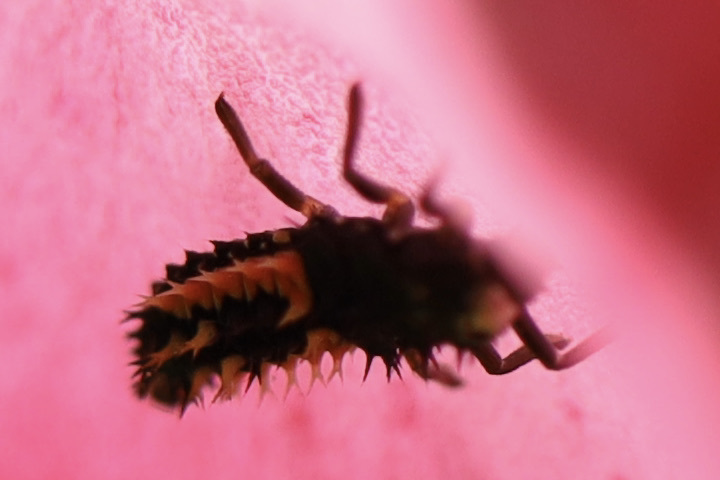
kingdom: Animalia
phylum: Arthropoda
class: Insecta
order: Coleoptera
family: Coccinellidae
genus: Harmonia
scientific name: Harmonia axyridis
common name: Harlequin ladybird
